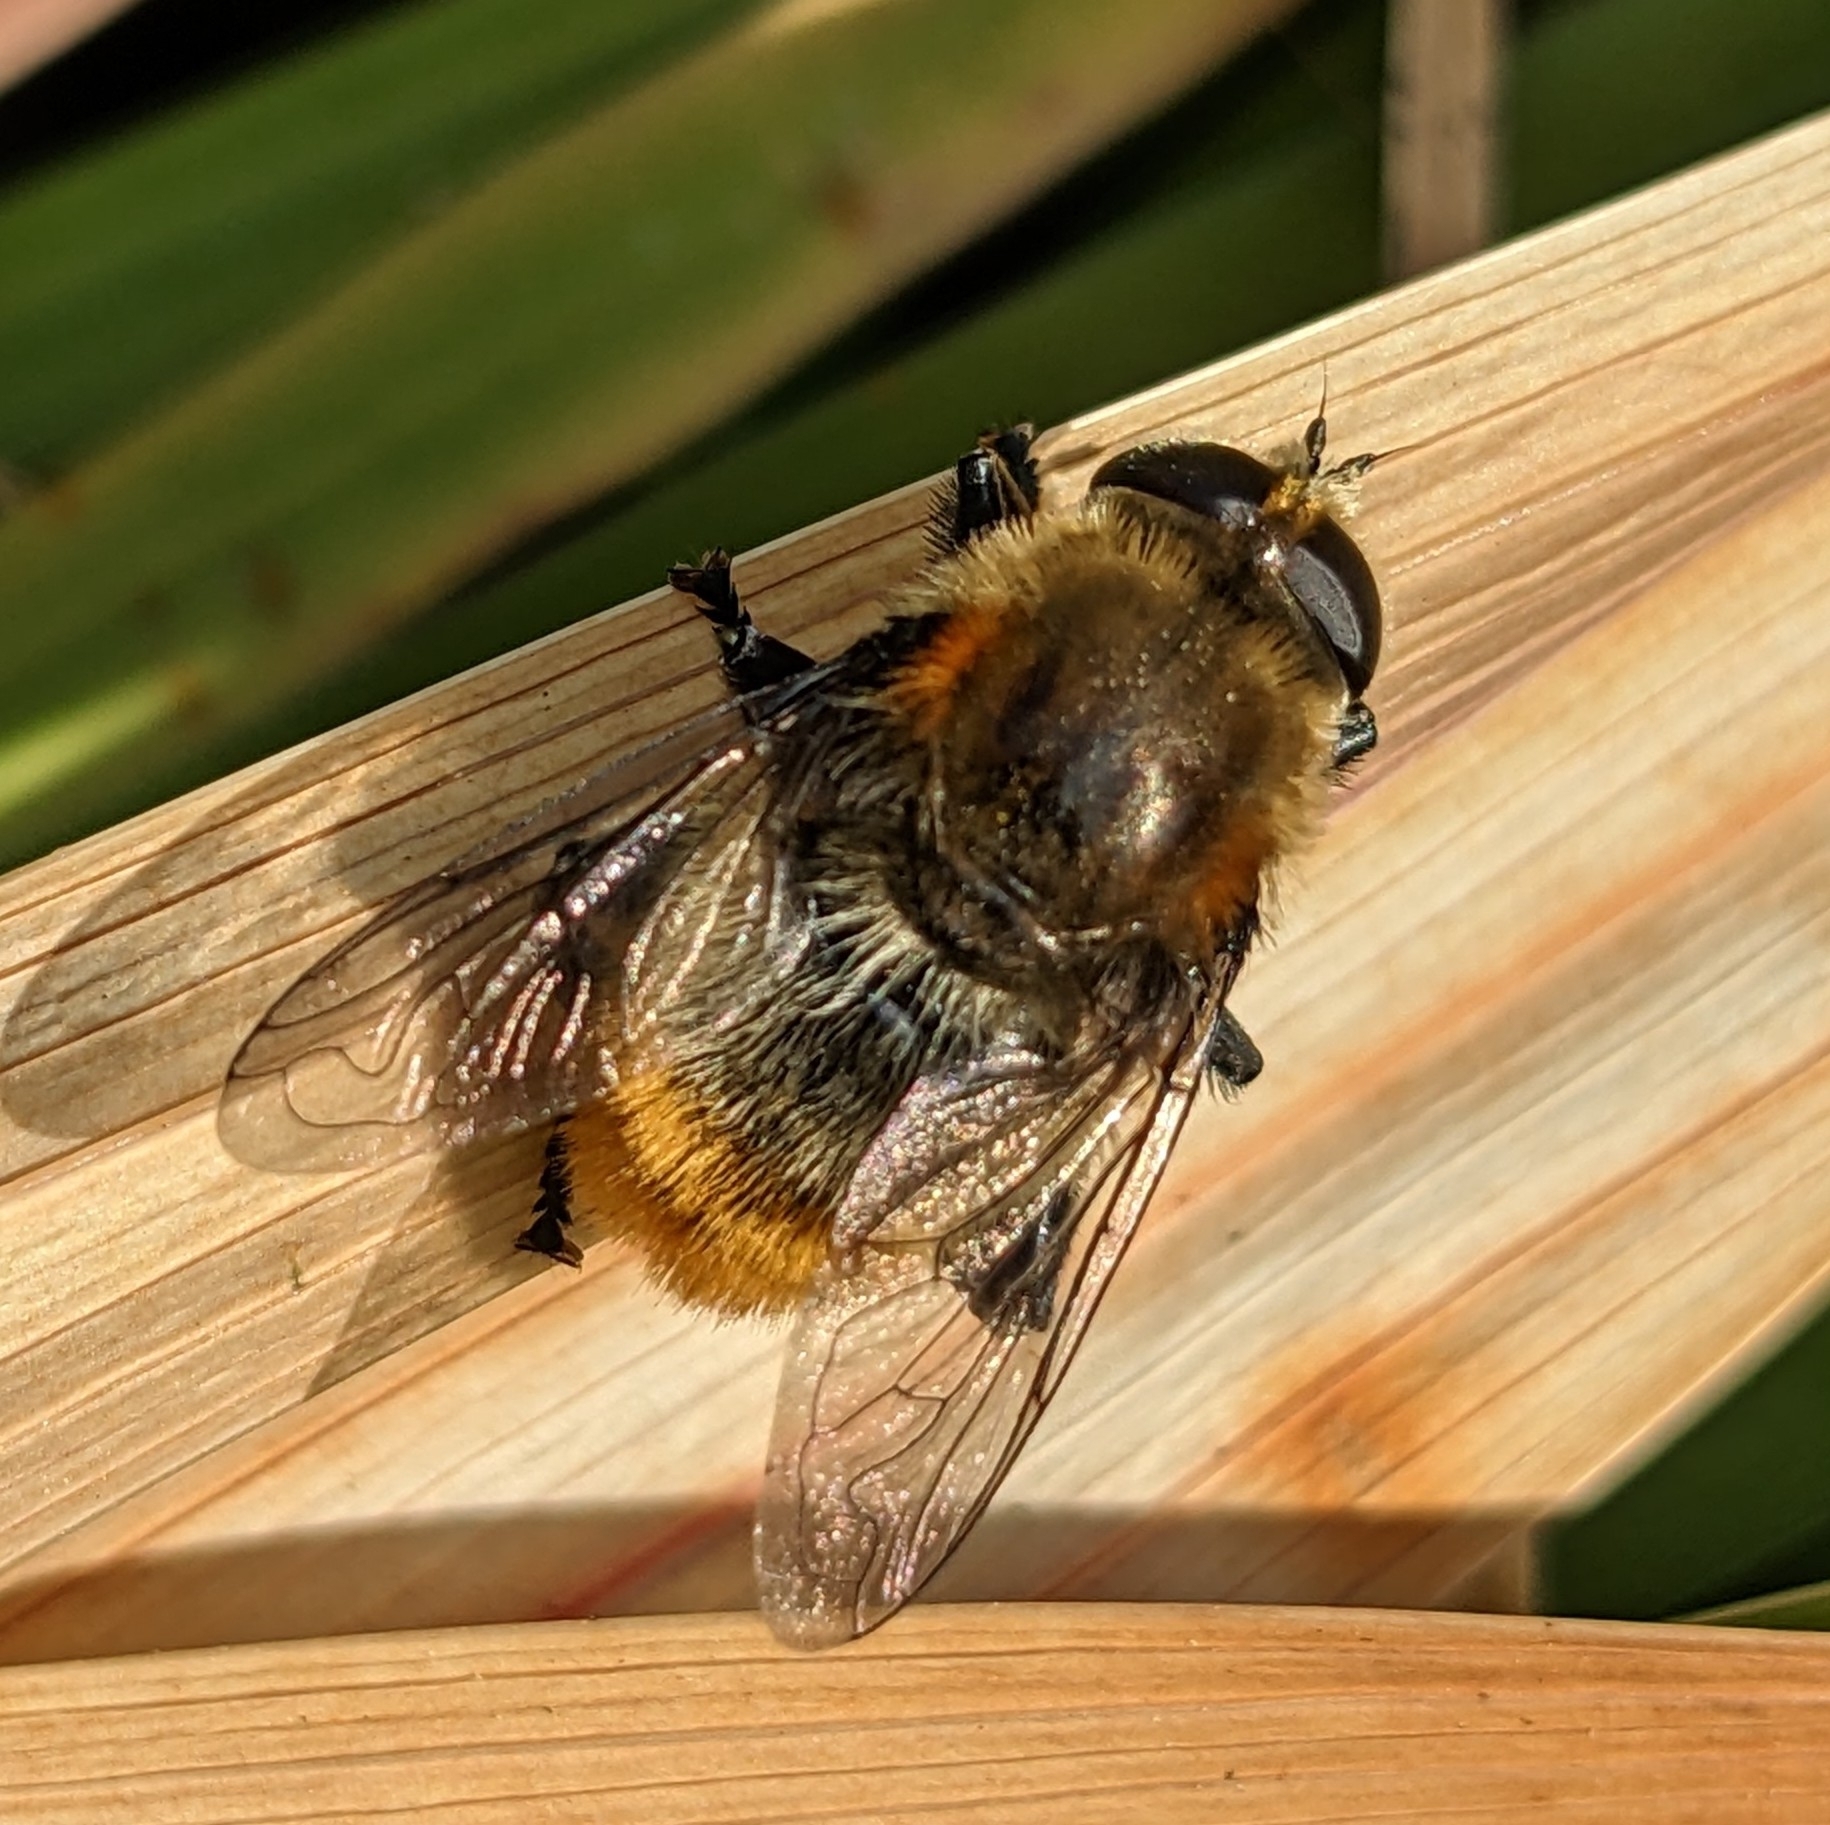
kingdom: Animalia
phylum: Arthropoda
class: Insecta
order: Diptera
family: Syrphidae
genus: Merodon
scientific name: Merodon equestris
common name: Greater bulb-fly
